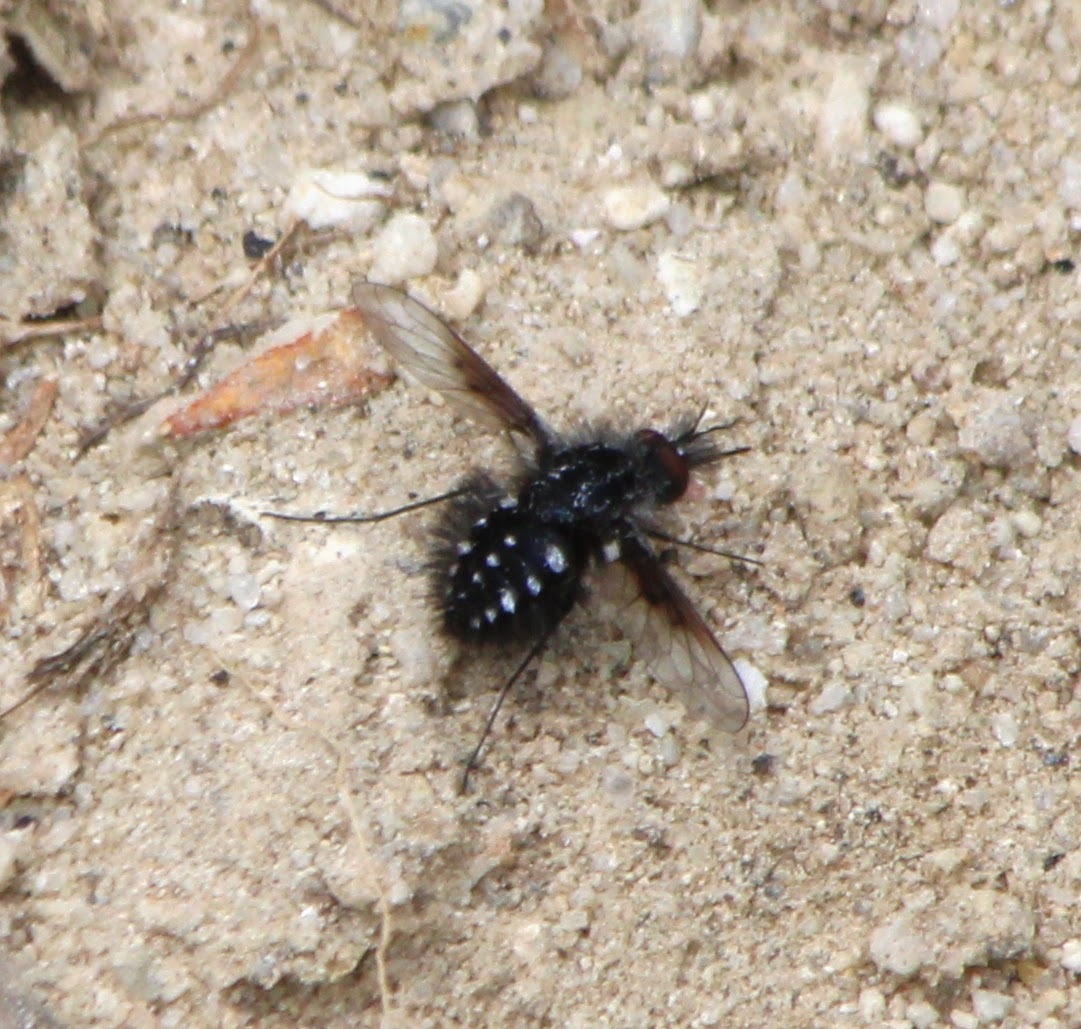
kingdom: Animalia
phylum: Arthropoda
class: Insecta
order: Diptera
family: Bombyliidae
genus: Bombylella
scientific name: Bombylella atra
